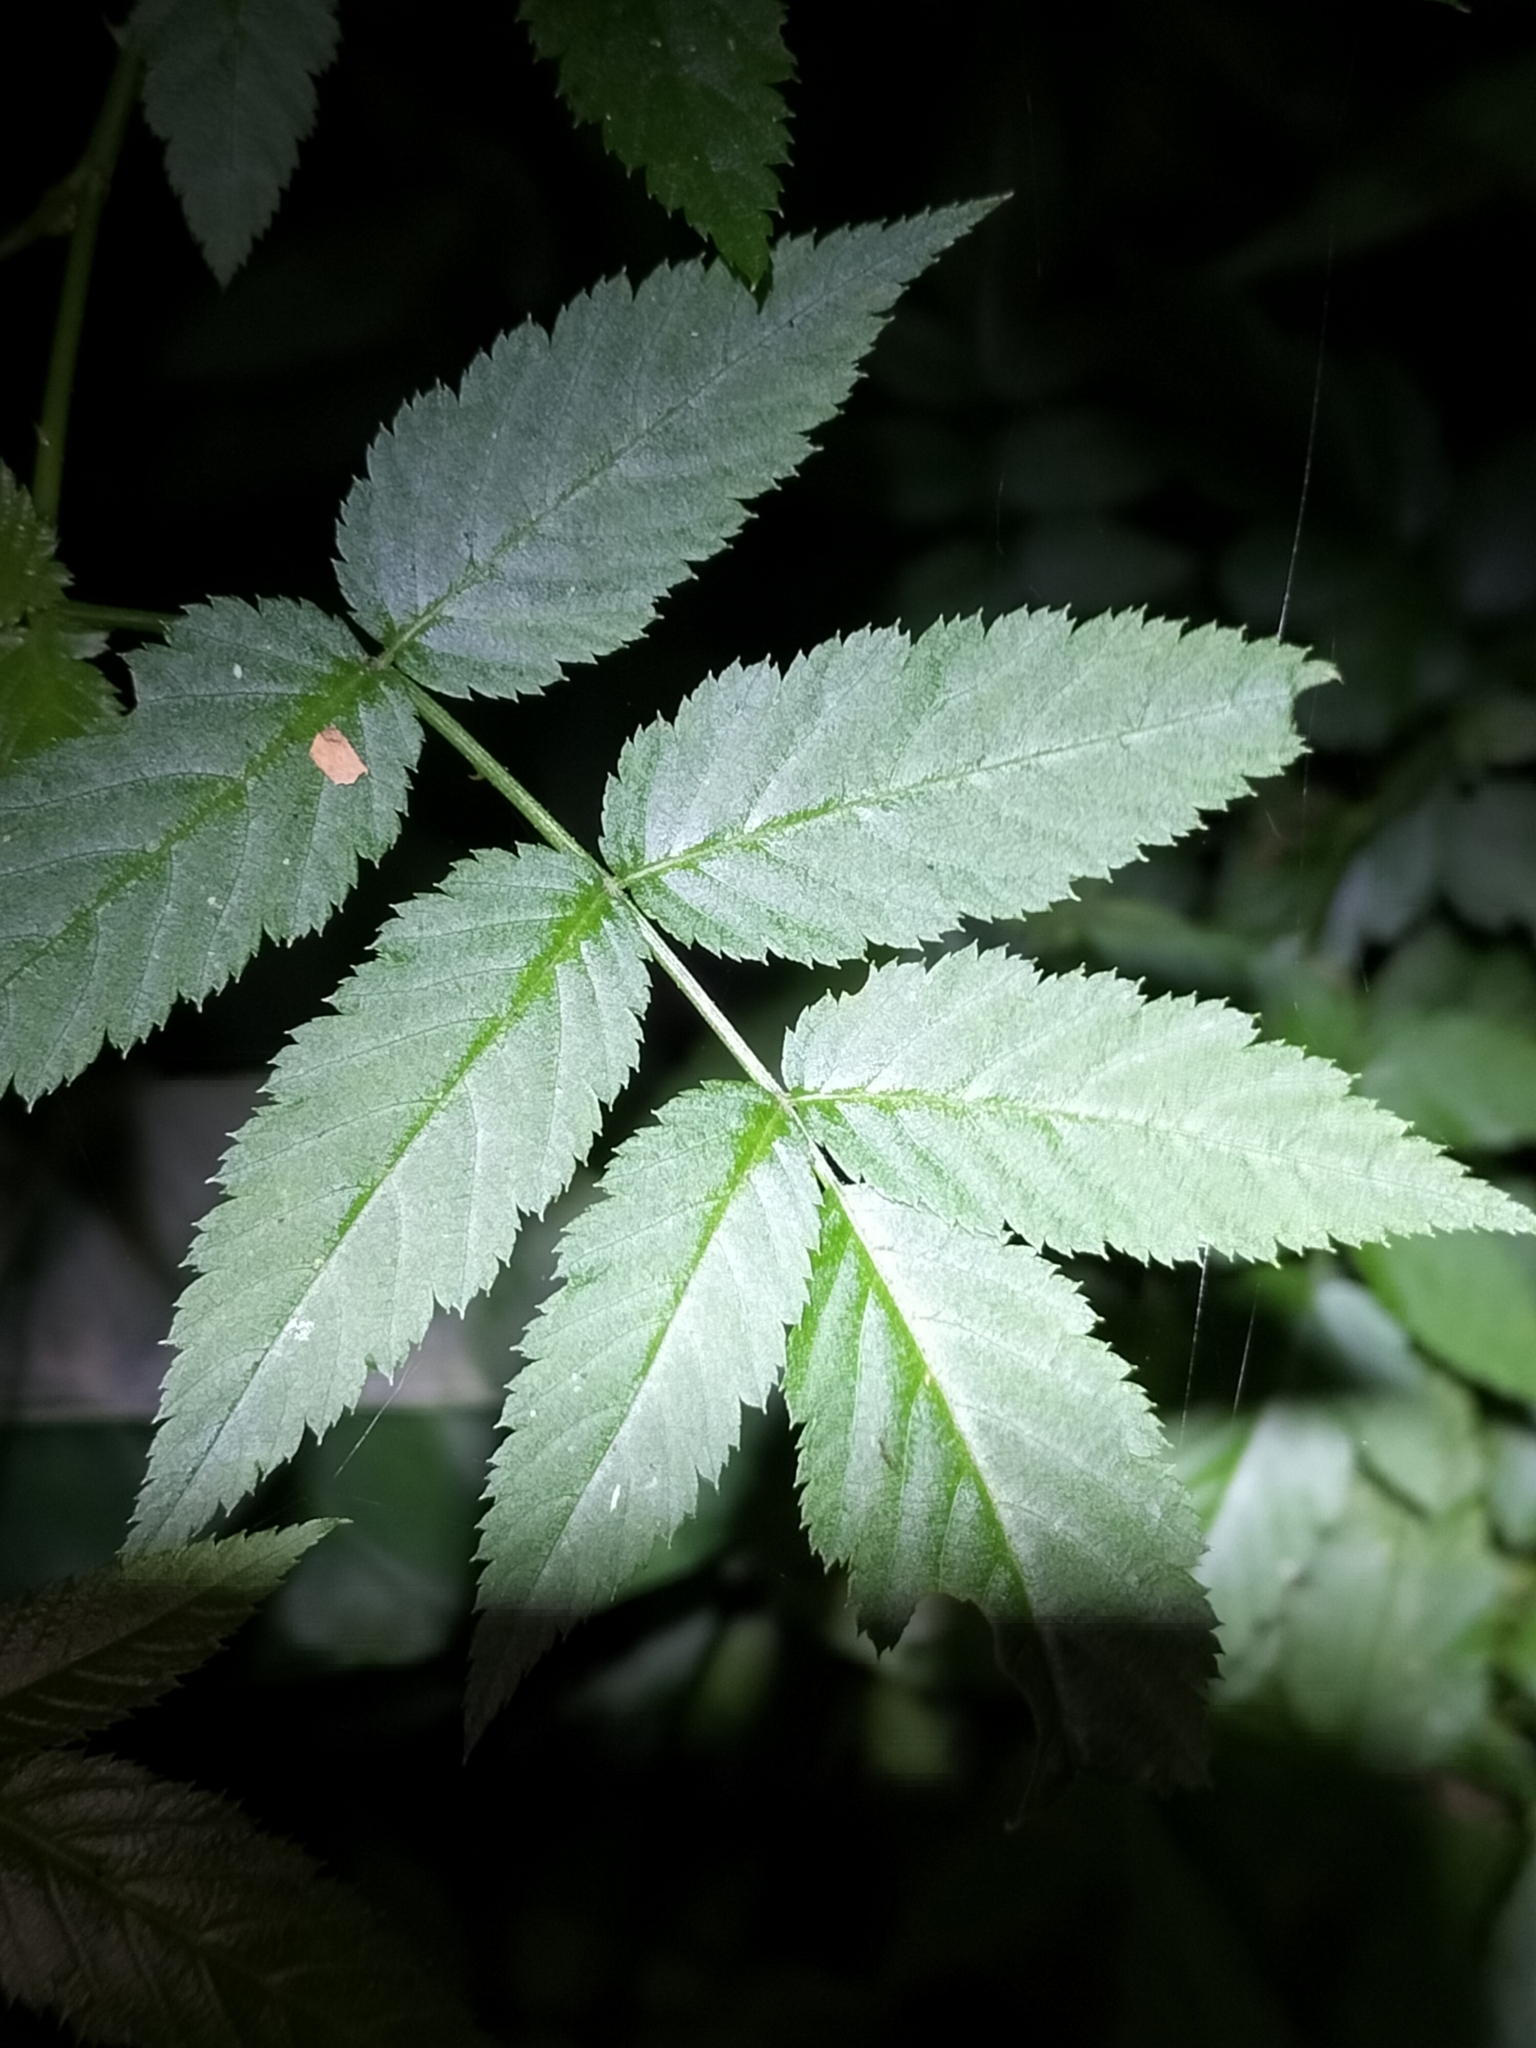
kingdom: Plantae
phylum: Tracheophyta
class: Magnoliopsida
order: Rosales
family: Rosaceae
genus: Rubus
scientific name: Rubus queenslandicus
